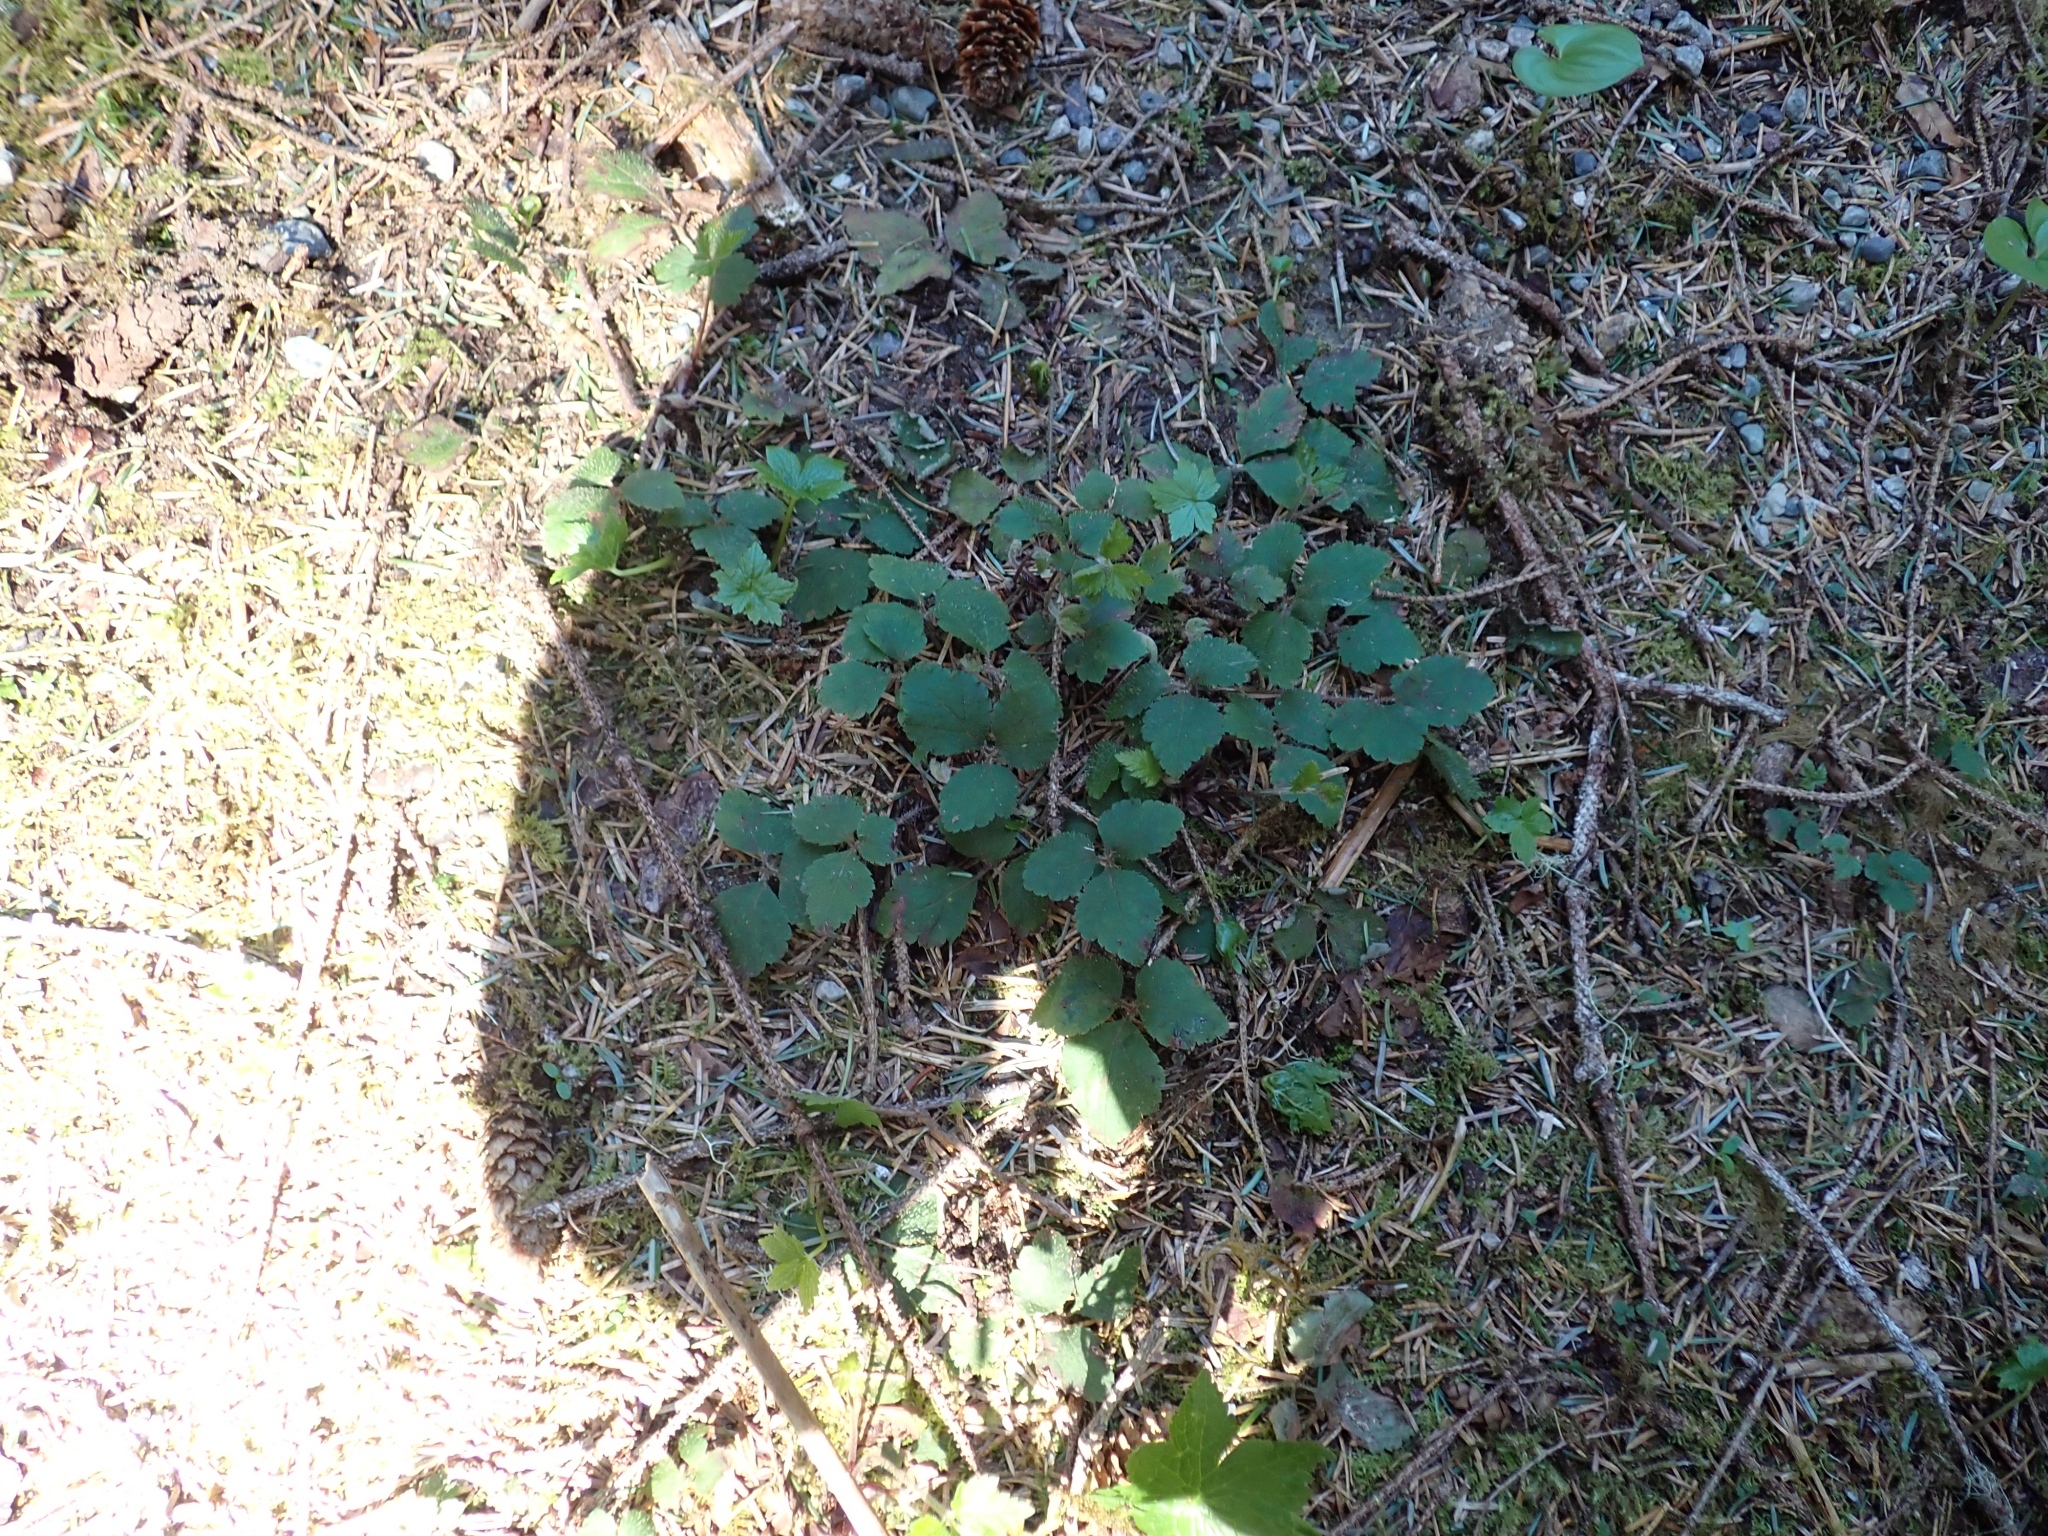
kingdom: Plantae
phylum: Tracheophyta
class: Magnoliopsida
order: Saxifragales
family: Saxifragaceae
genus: Tiarella
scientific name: Tiarella trifoliata
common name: Sugar-scoop
